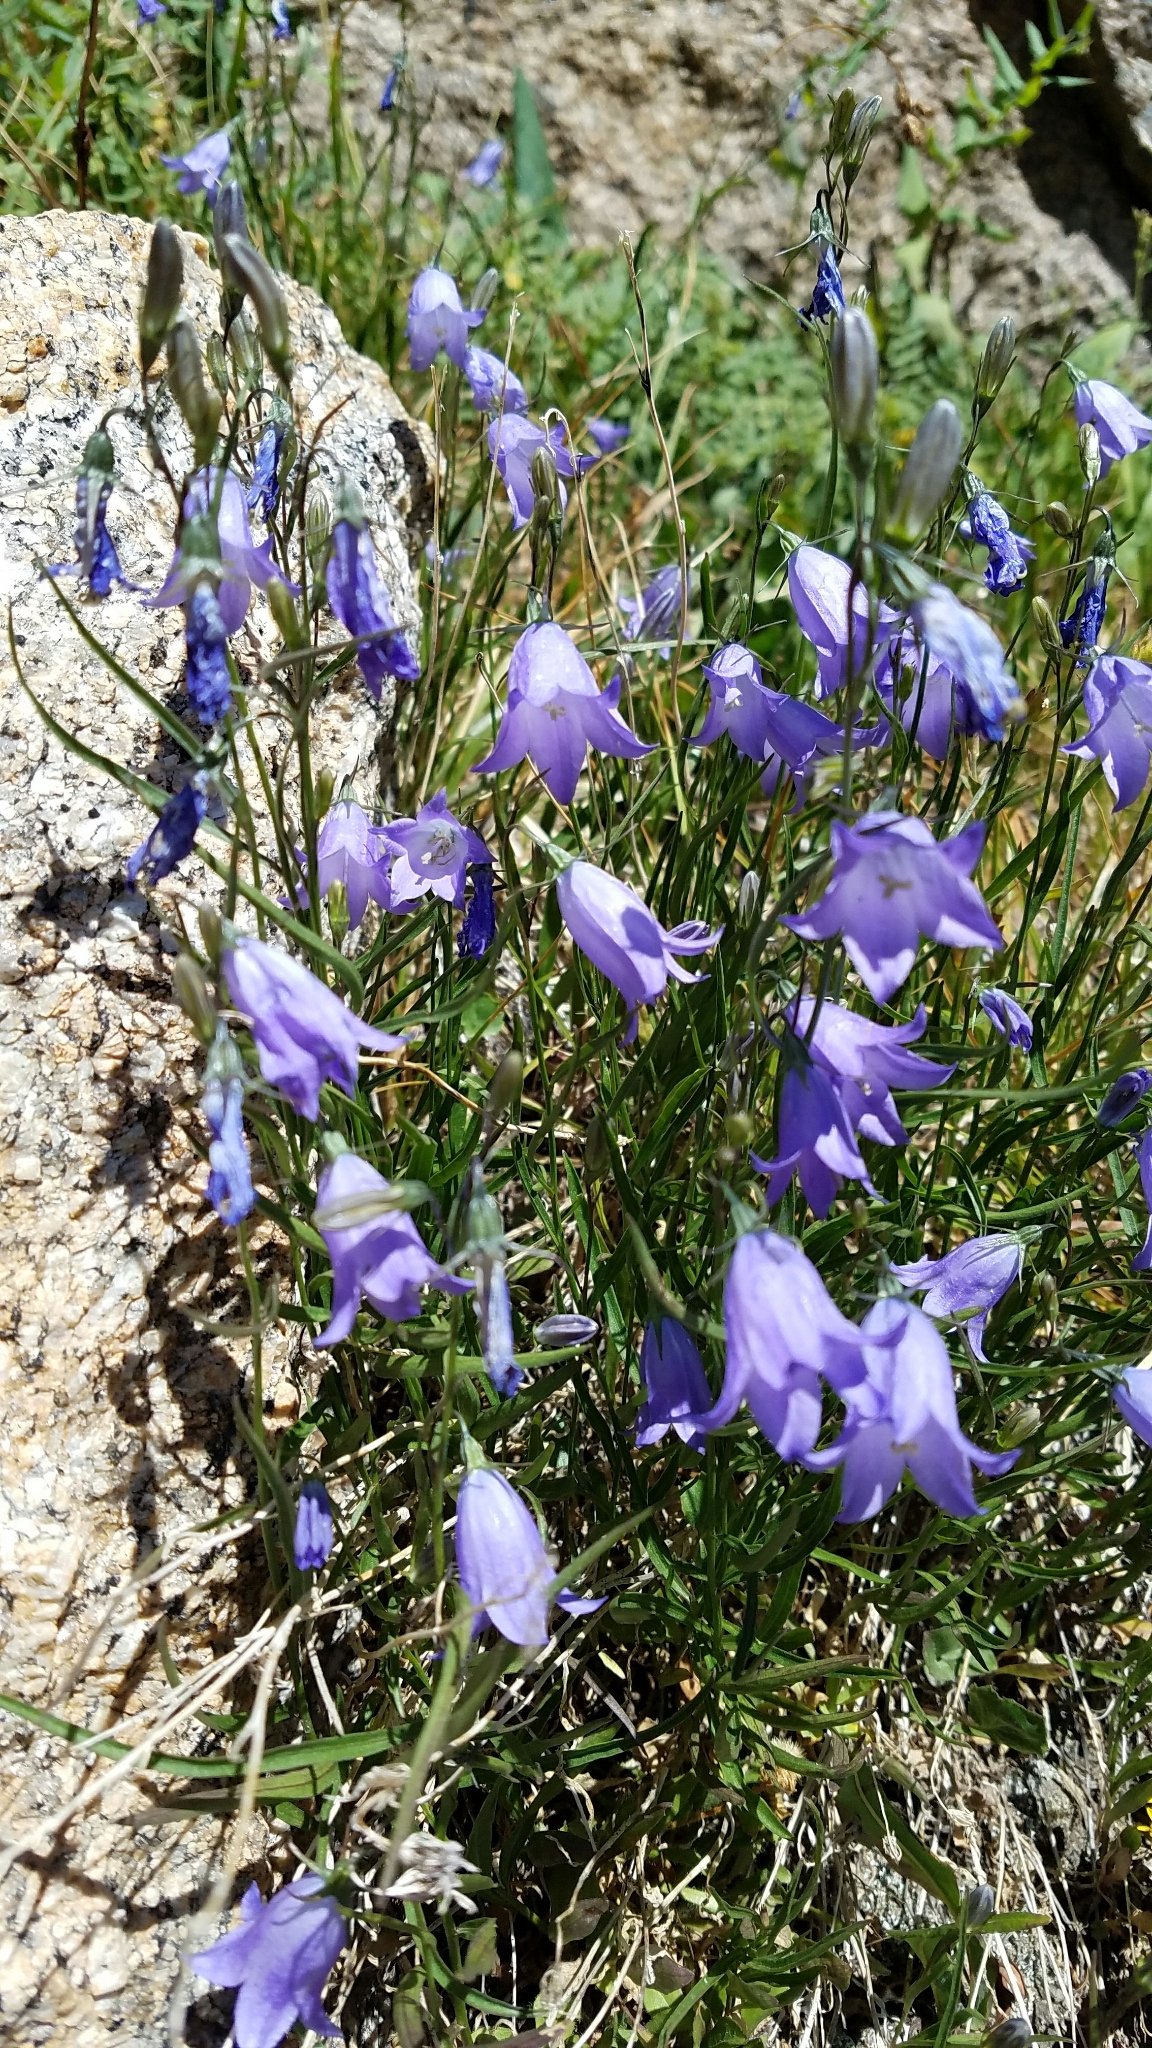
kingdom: Plantae
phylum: Tracheophyta
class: Magnoliopsida
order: Asterales
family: Campanulaceae
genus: Campanula
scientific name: Campanula petiolata
